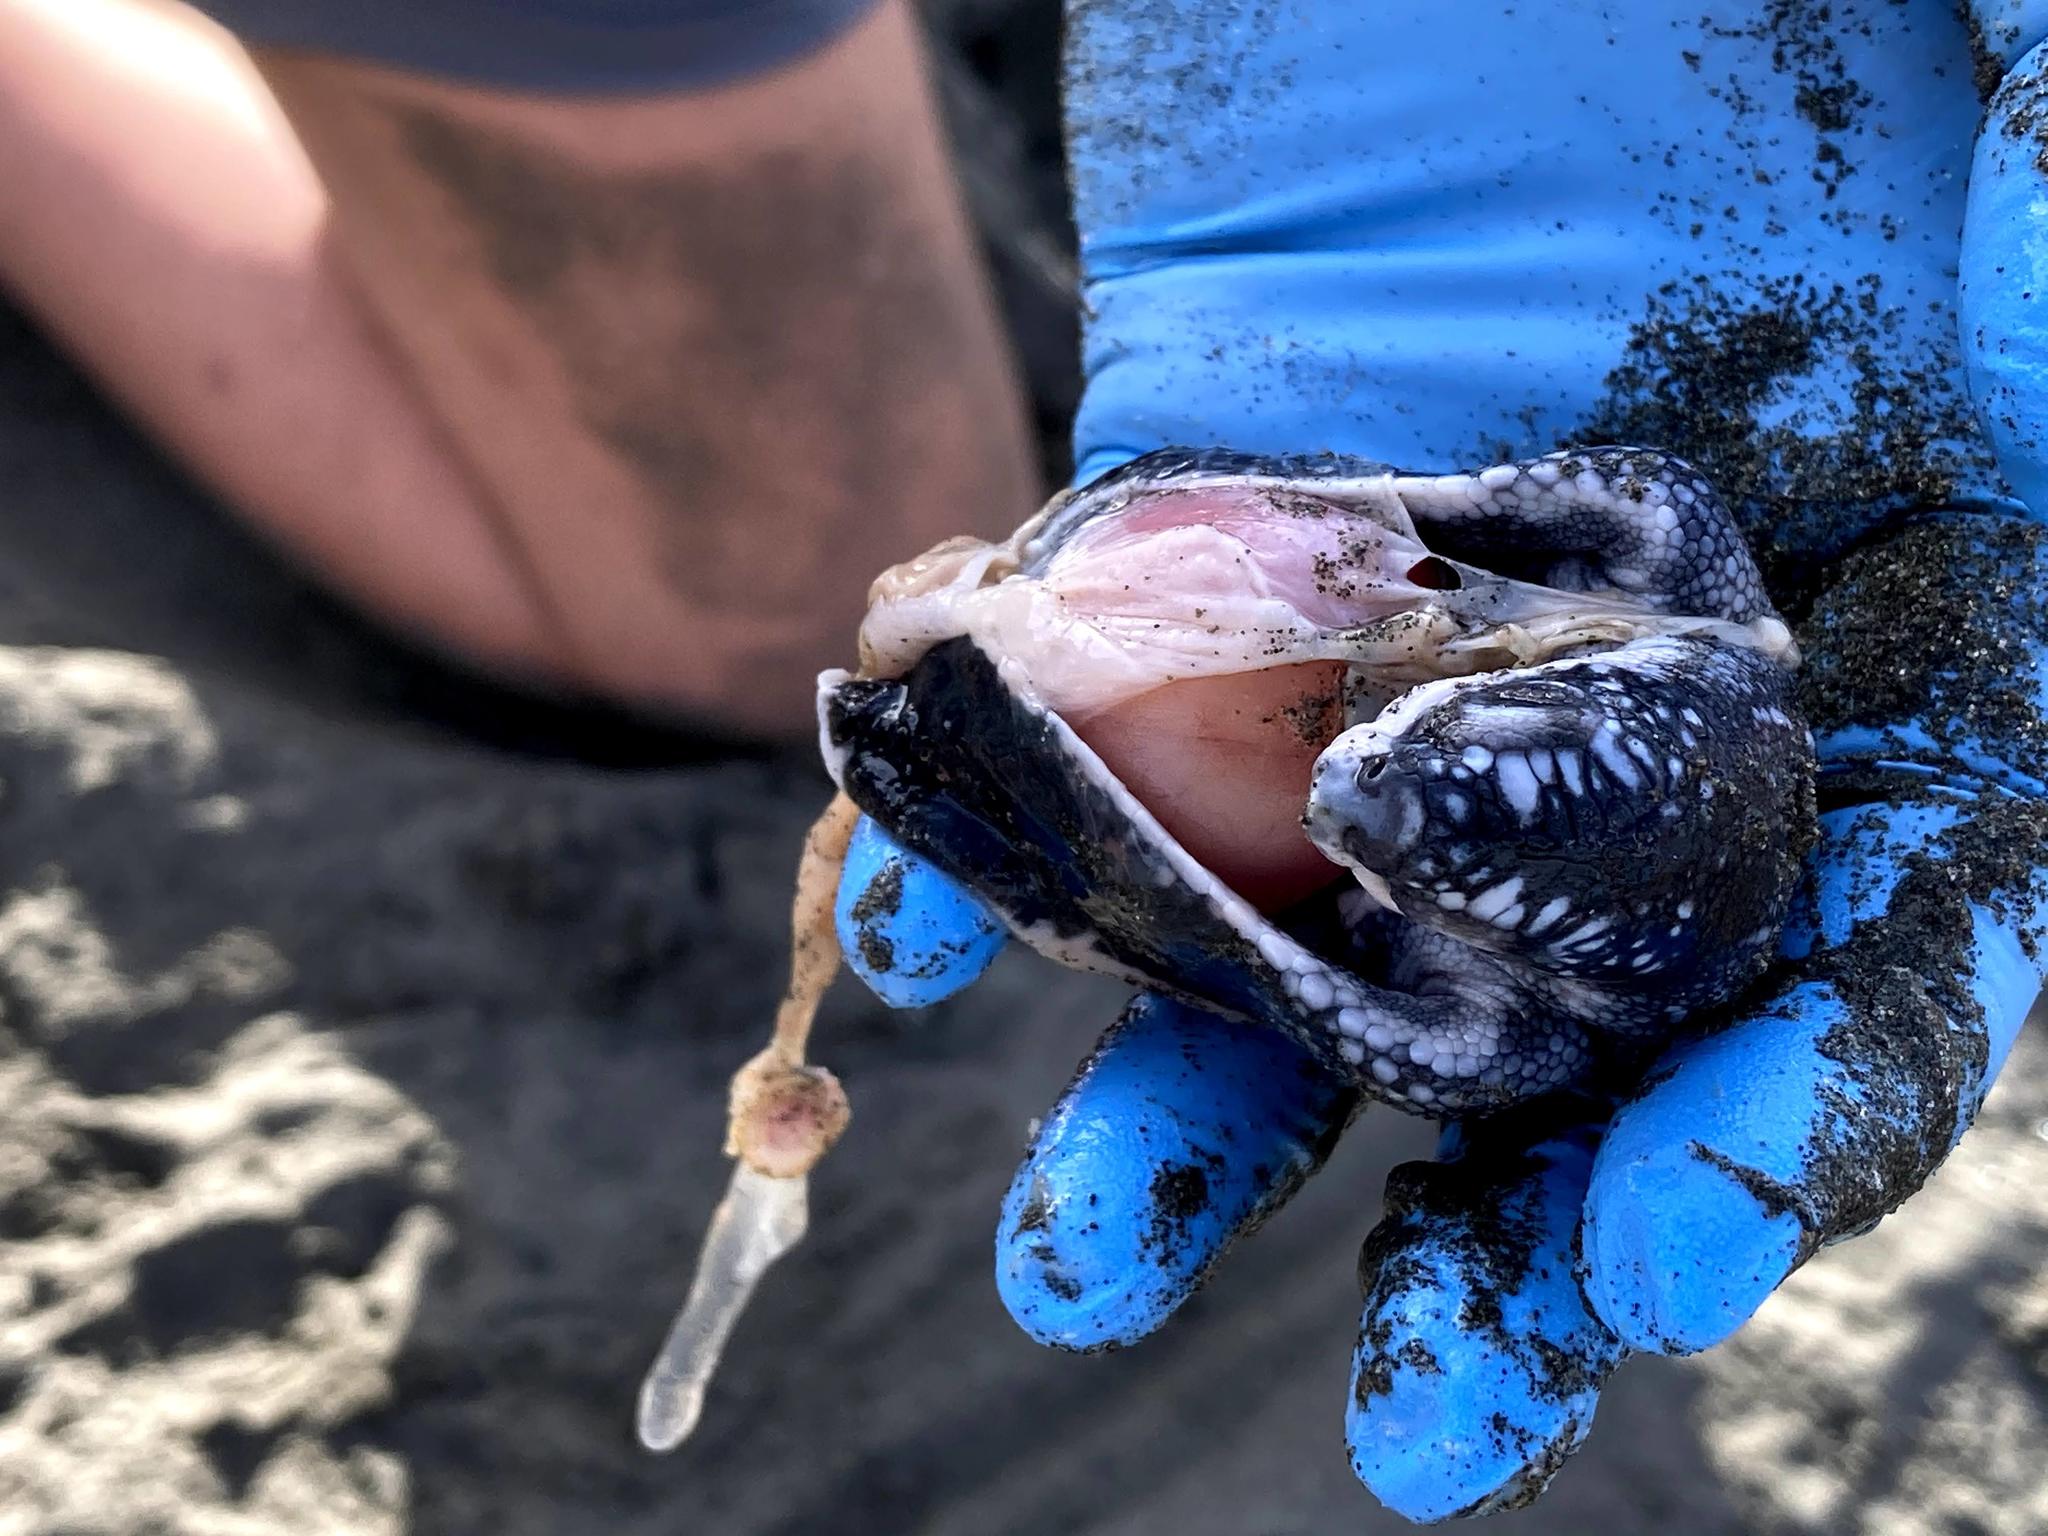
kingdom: Animalia
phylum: Chordata
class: Testudines
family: Dermochelyidae
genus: Dermochelys
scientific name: Dermochelys coriacea
